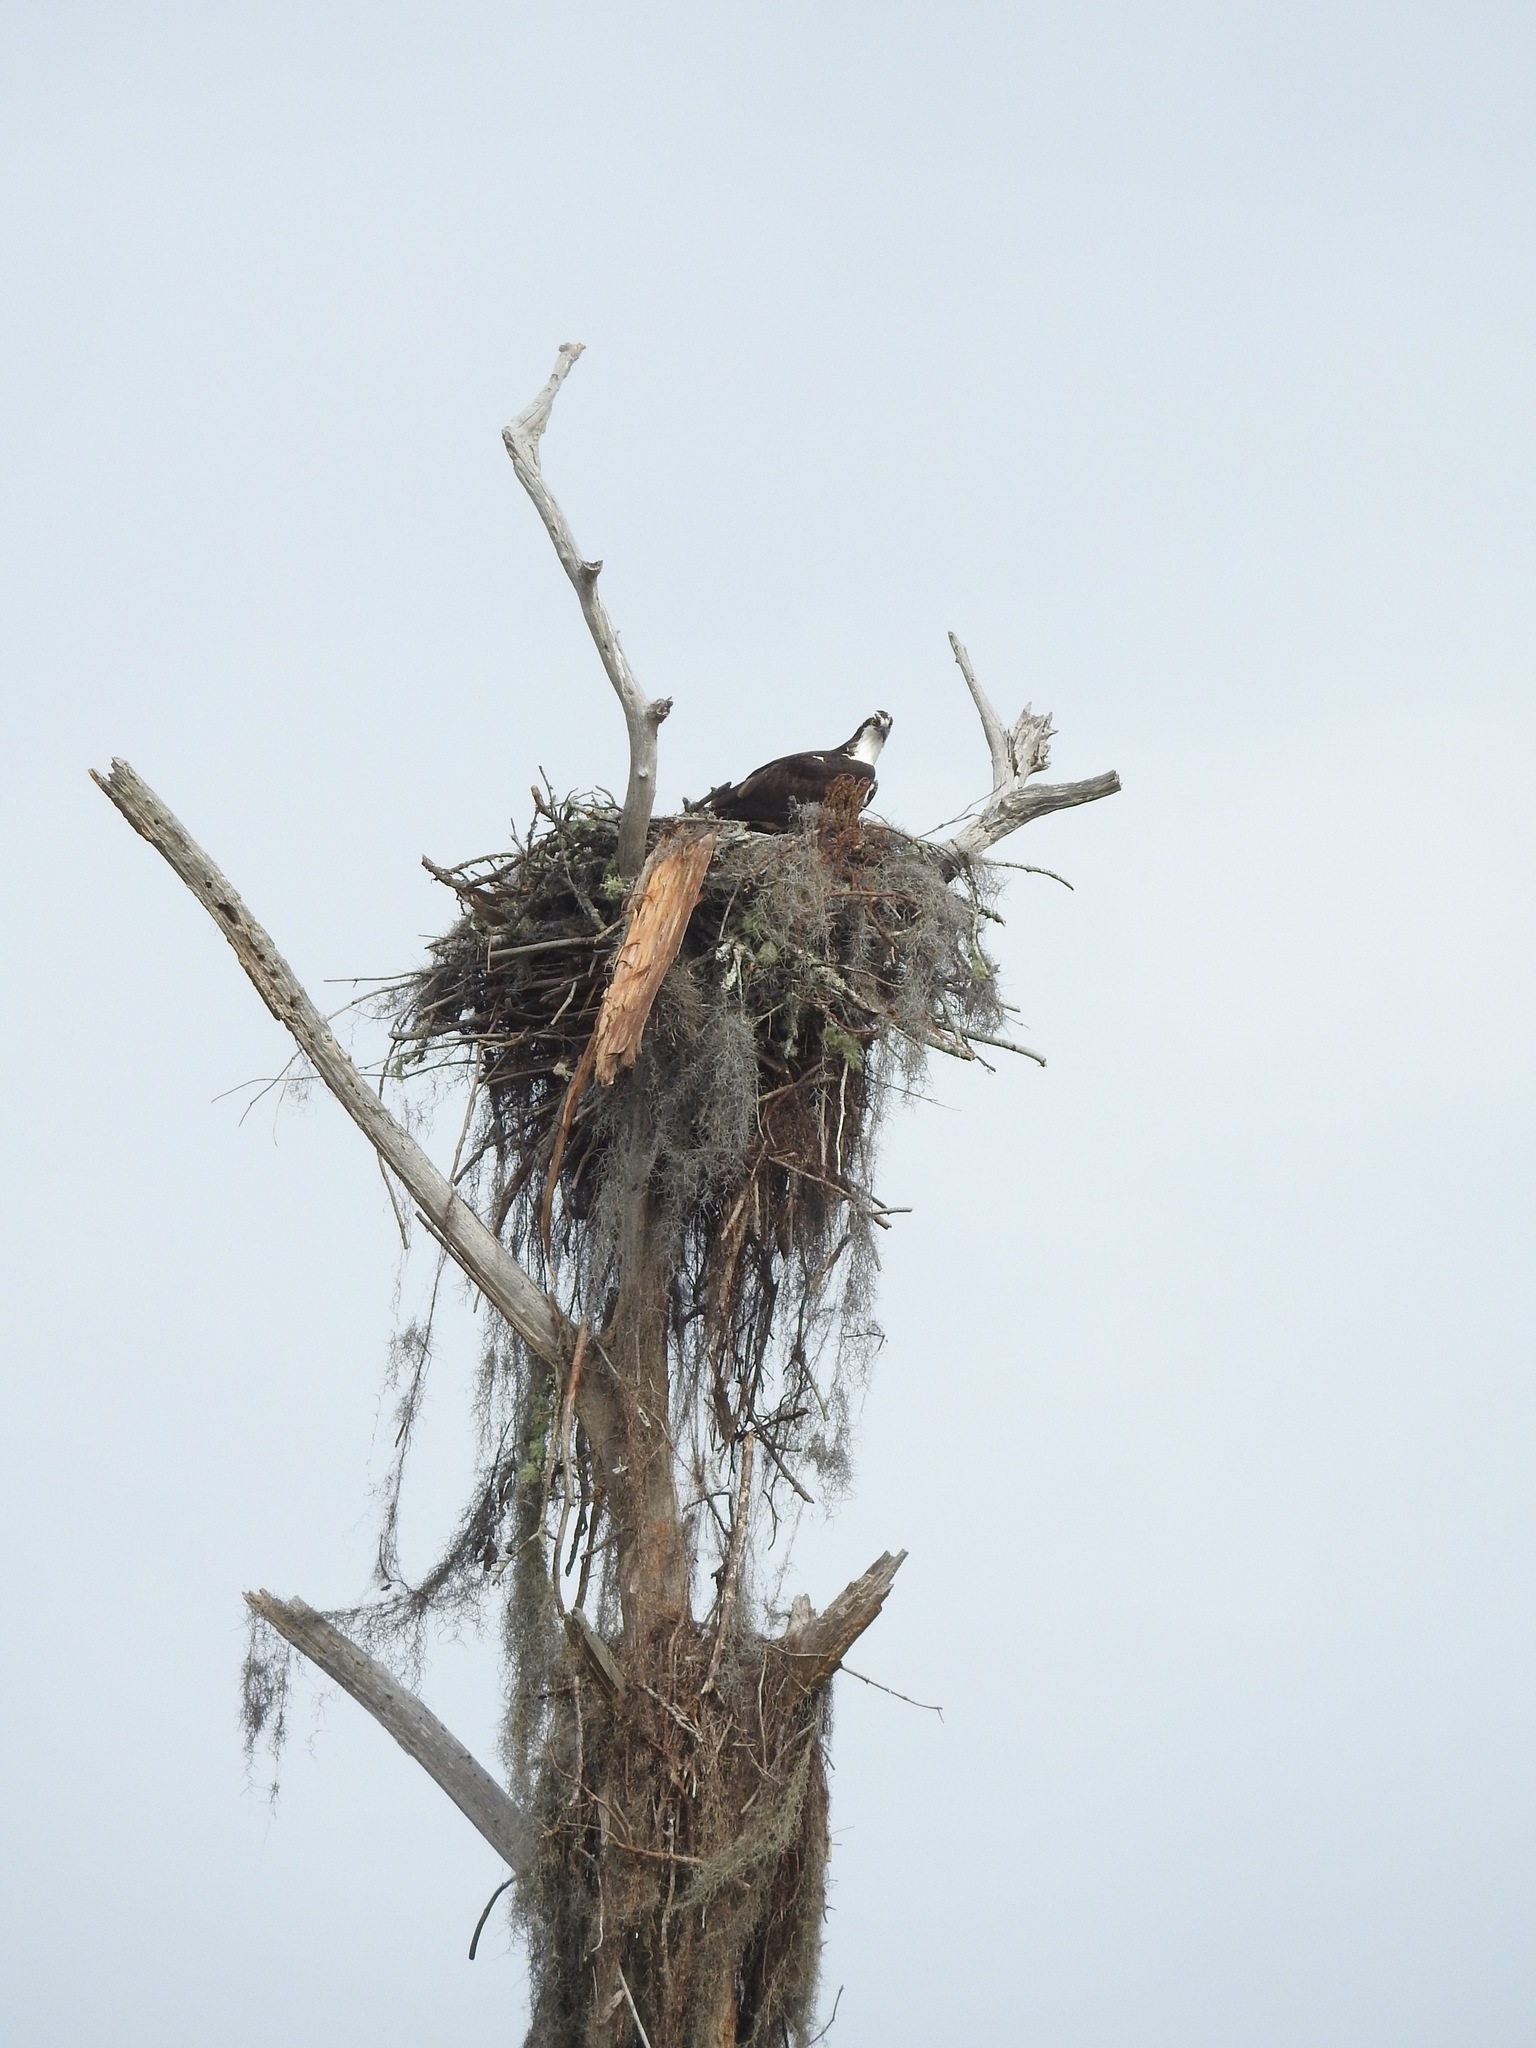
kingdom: Animalia
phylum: Chordata
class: Aves
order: Accipitriformes
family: Pandionidae
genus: Pandion
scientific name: Pandion haliaetus
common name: Osprey
